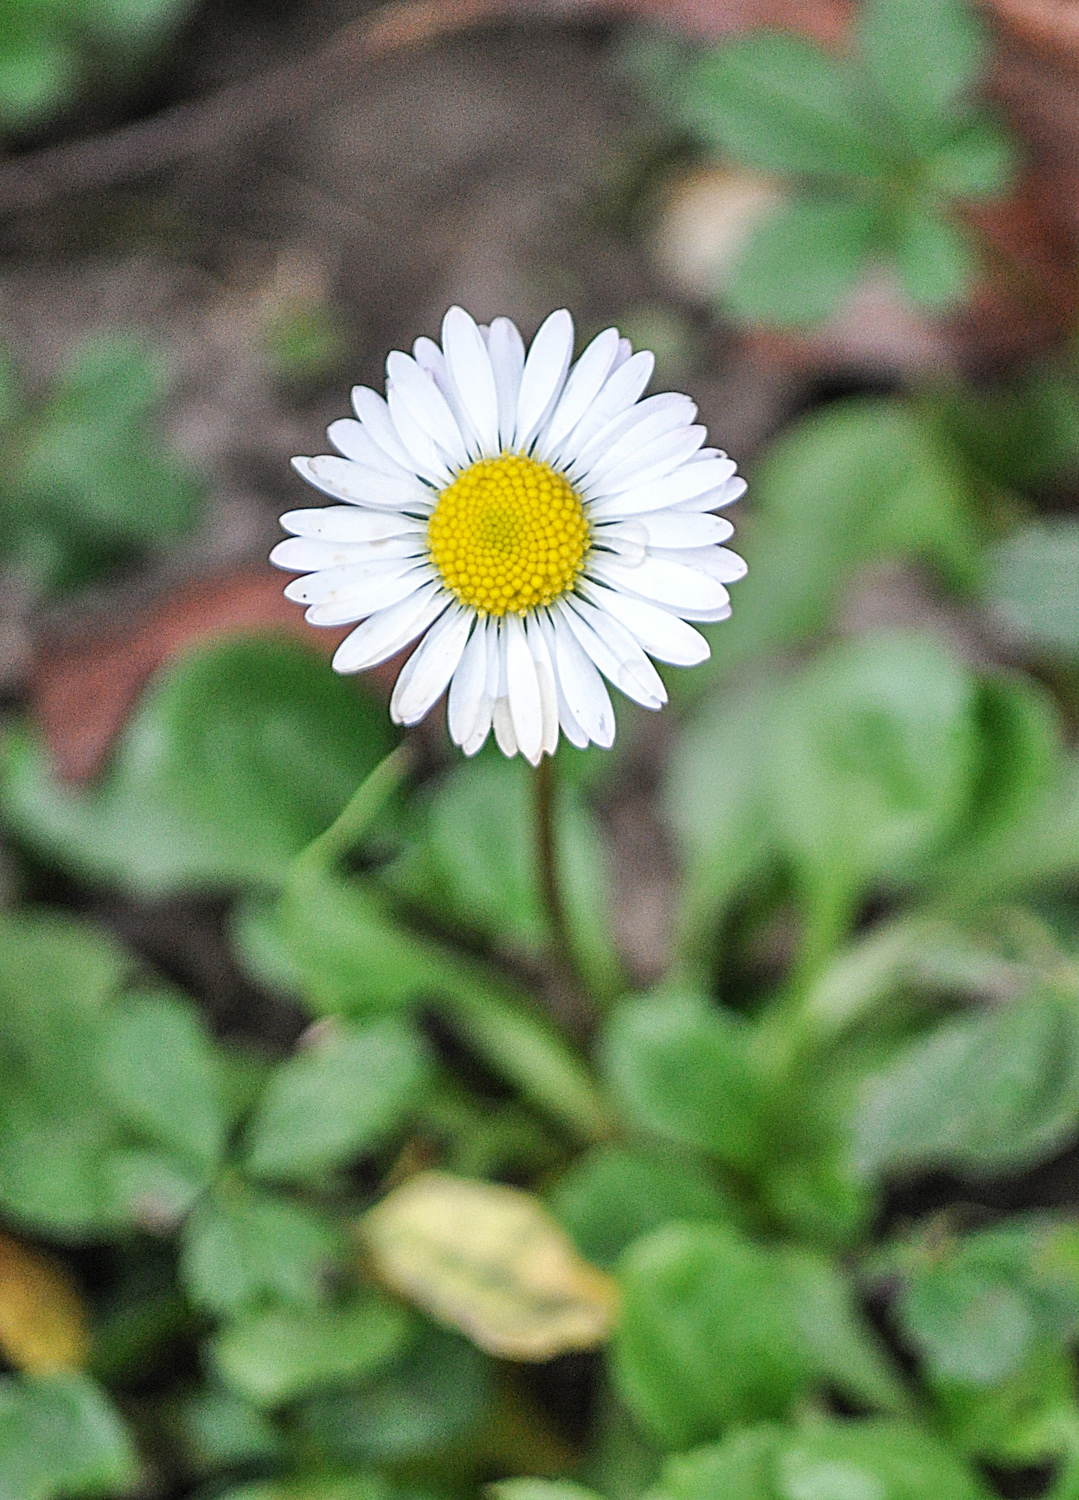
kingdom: Plantae
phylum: Tracheophyta
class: Magnoliopsida
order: Asterales
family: Asteraceae
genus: Bellis
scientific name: Bellis perennis
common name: Lawndaisy
